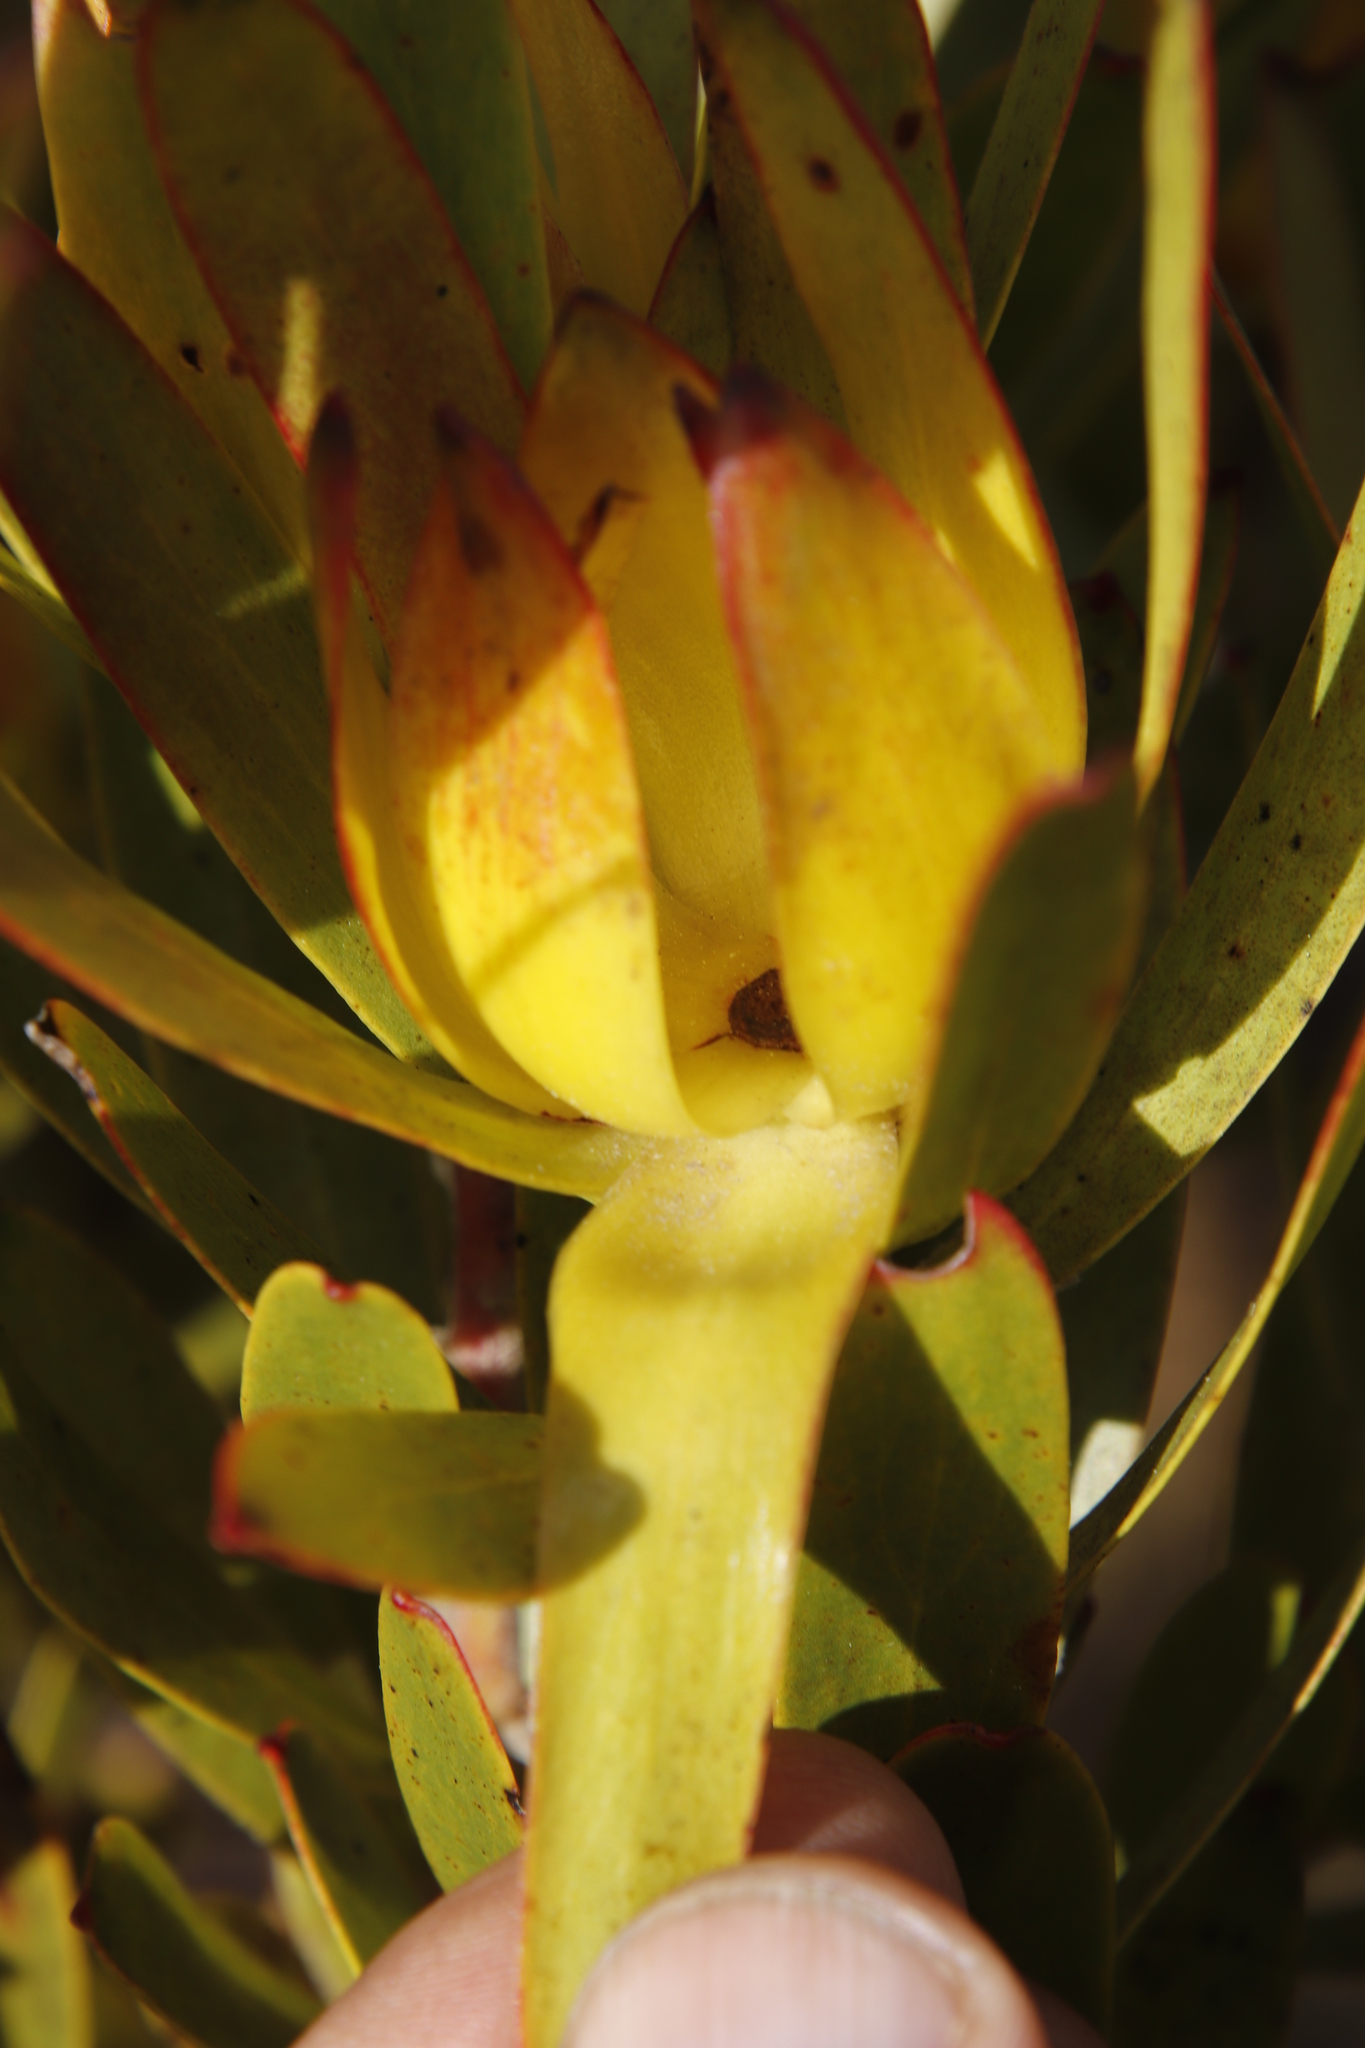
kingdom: Plantae
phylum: Tracheophyta
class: Magnoliopsida
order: Proteales
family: Proteaceae
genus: Leucadendron
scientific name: Leucadendron laureolum
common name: Golden sunshinebush
